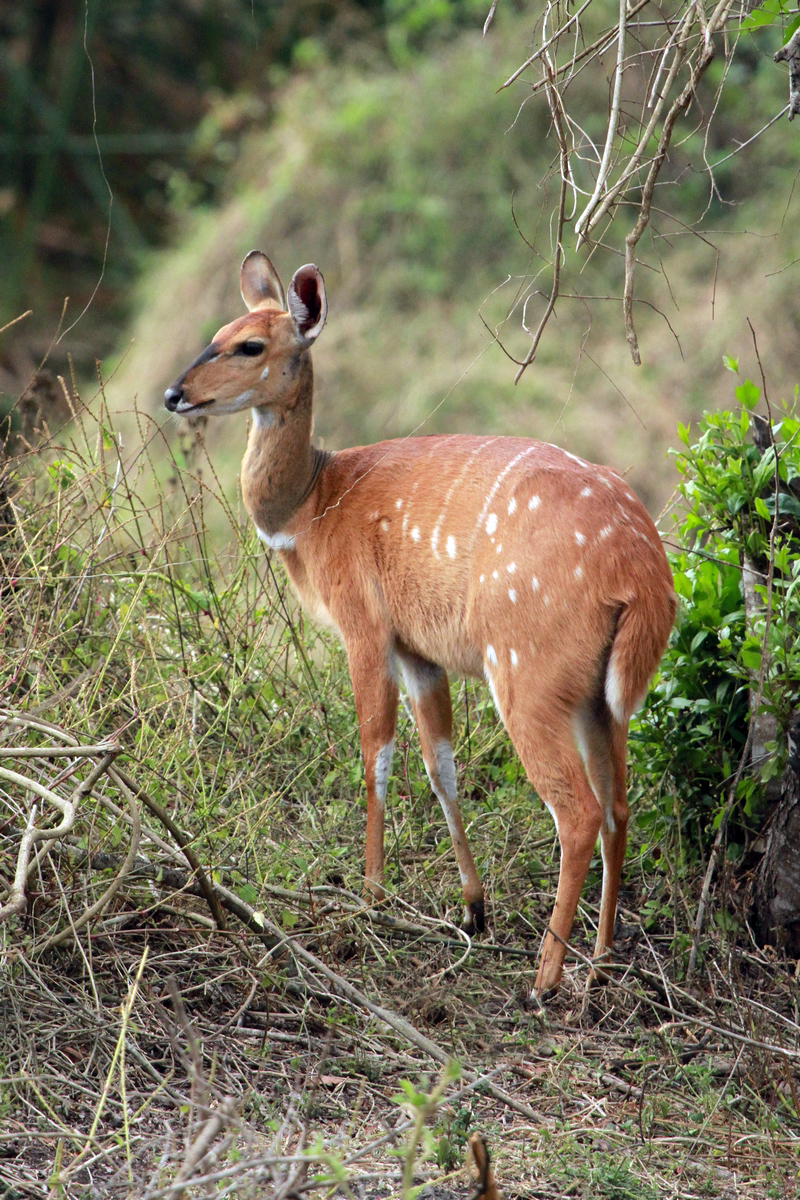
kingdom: Animalia
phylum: Chordata
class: Mammalia
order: Artiodactyla
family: Bovidae
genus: Tragelaphus
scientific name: Tragelaphus scriptus
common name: Bushbuck
